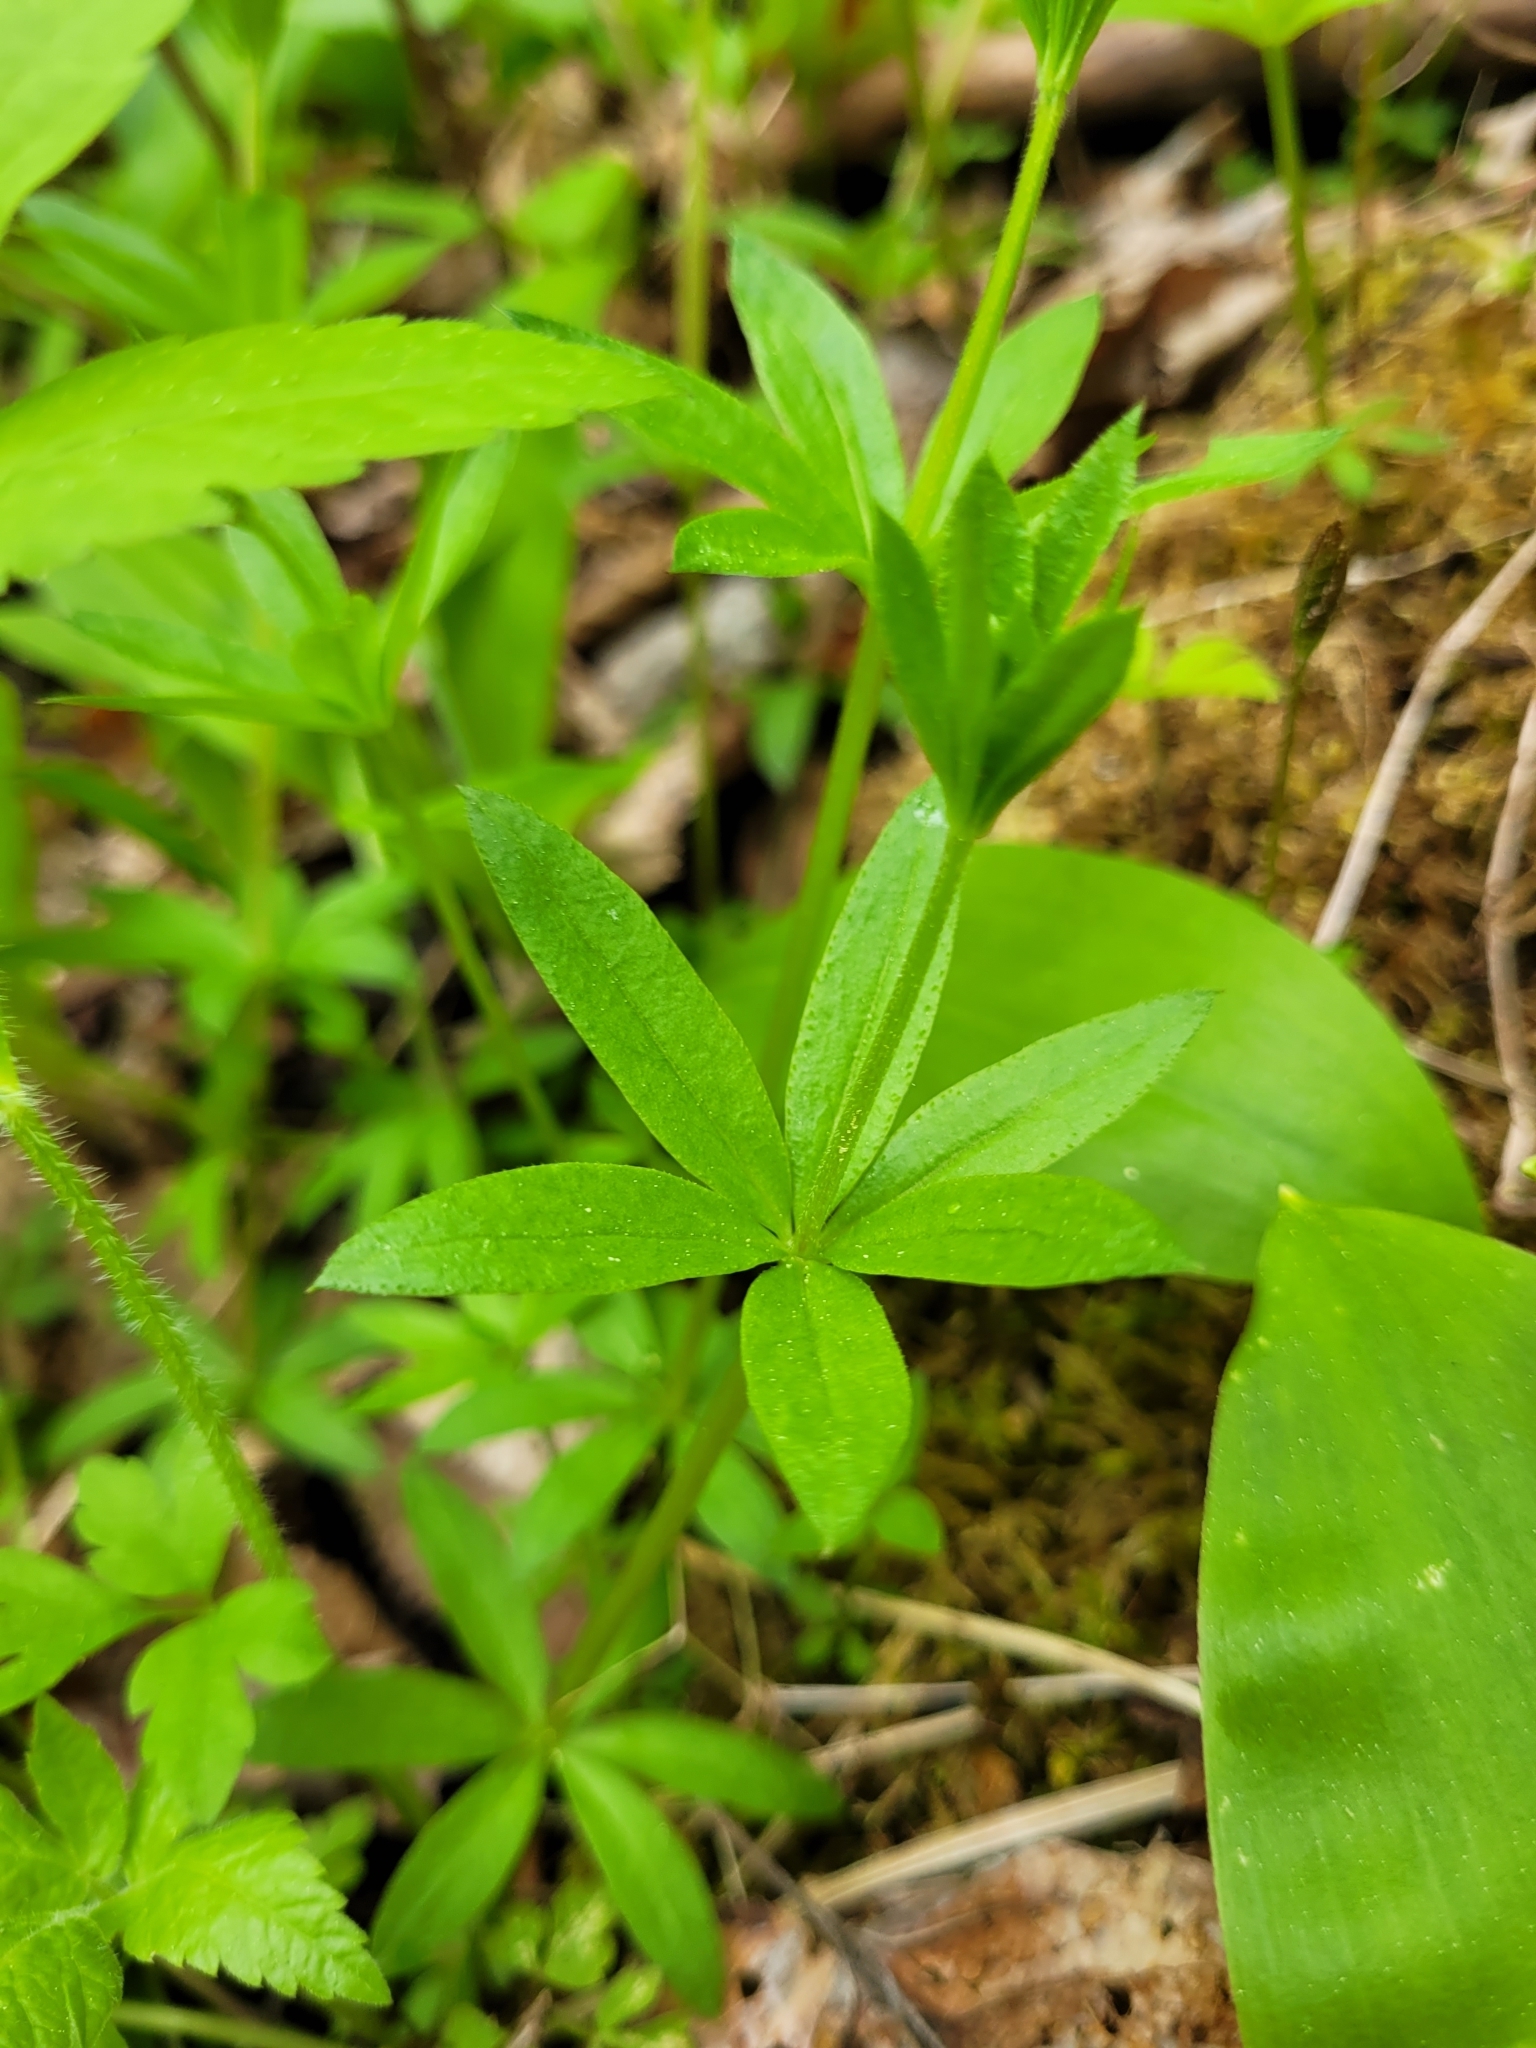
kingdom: Plantae
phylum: Tracheophyta
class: Magnoliopsida
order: Gentianales
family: Rubiaceae
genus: Galium
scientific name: Galium triflorum
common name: Fragrant bedstraw
